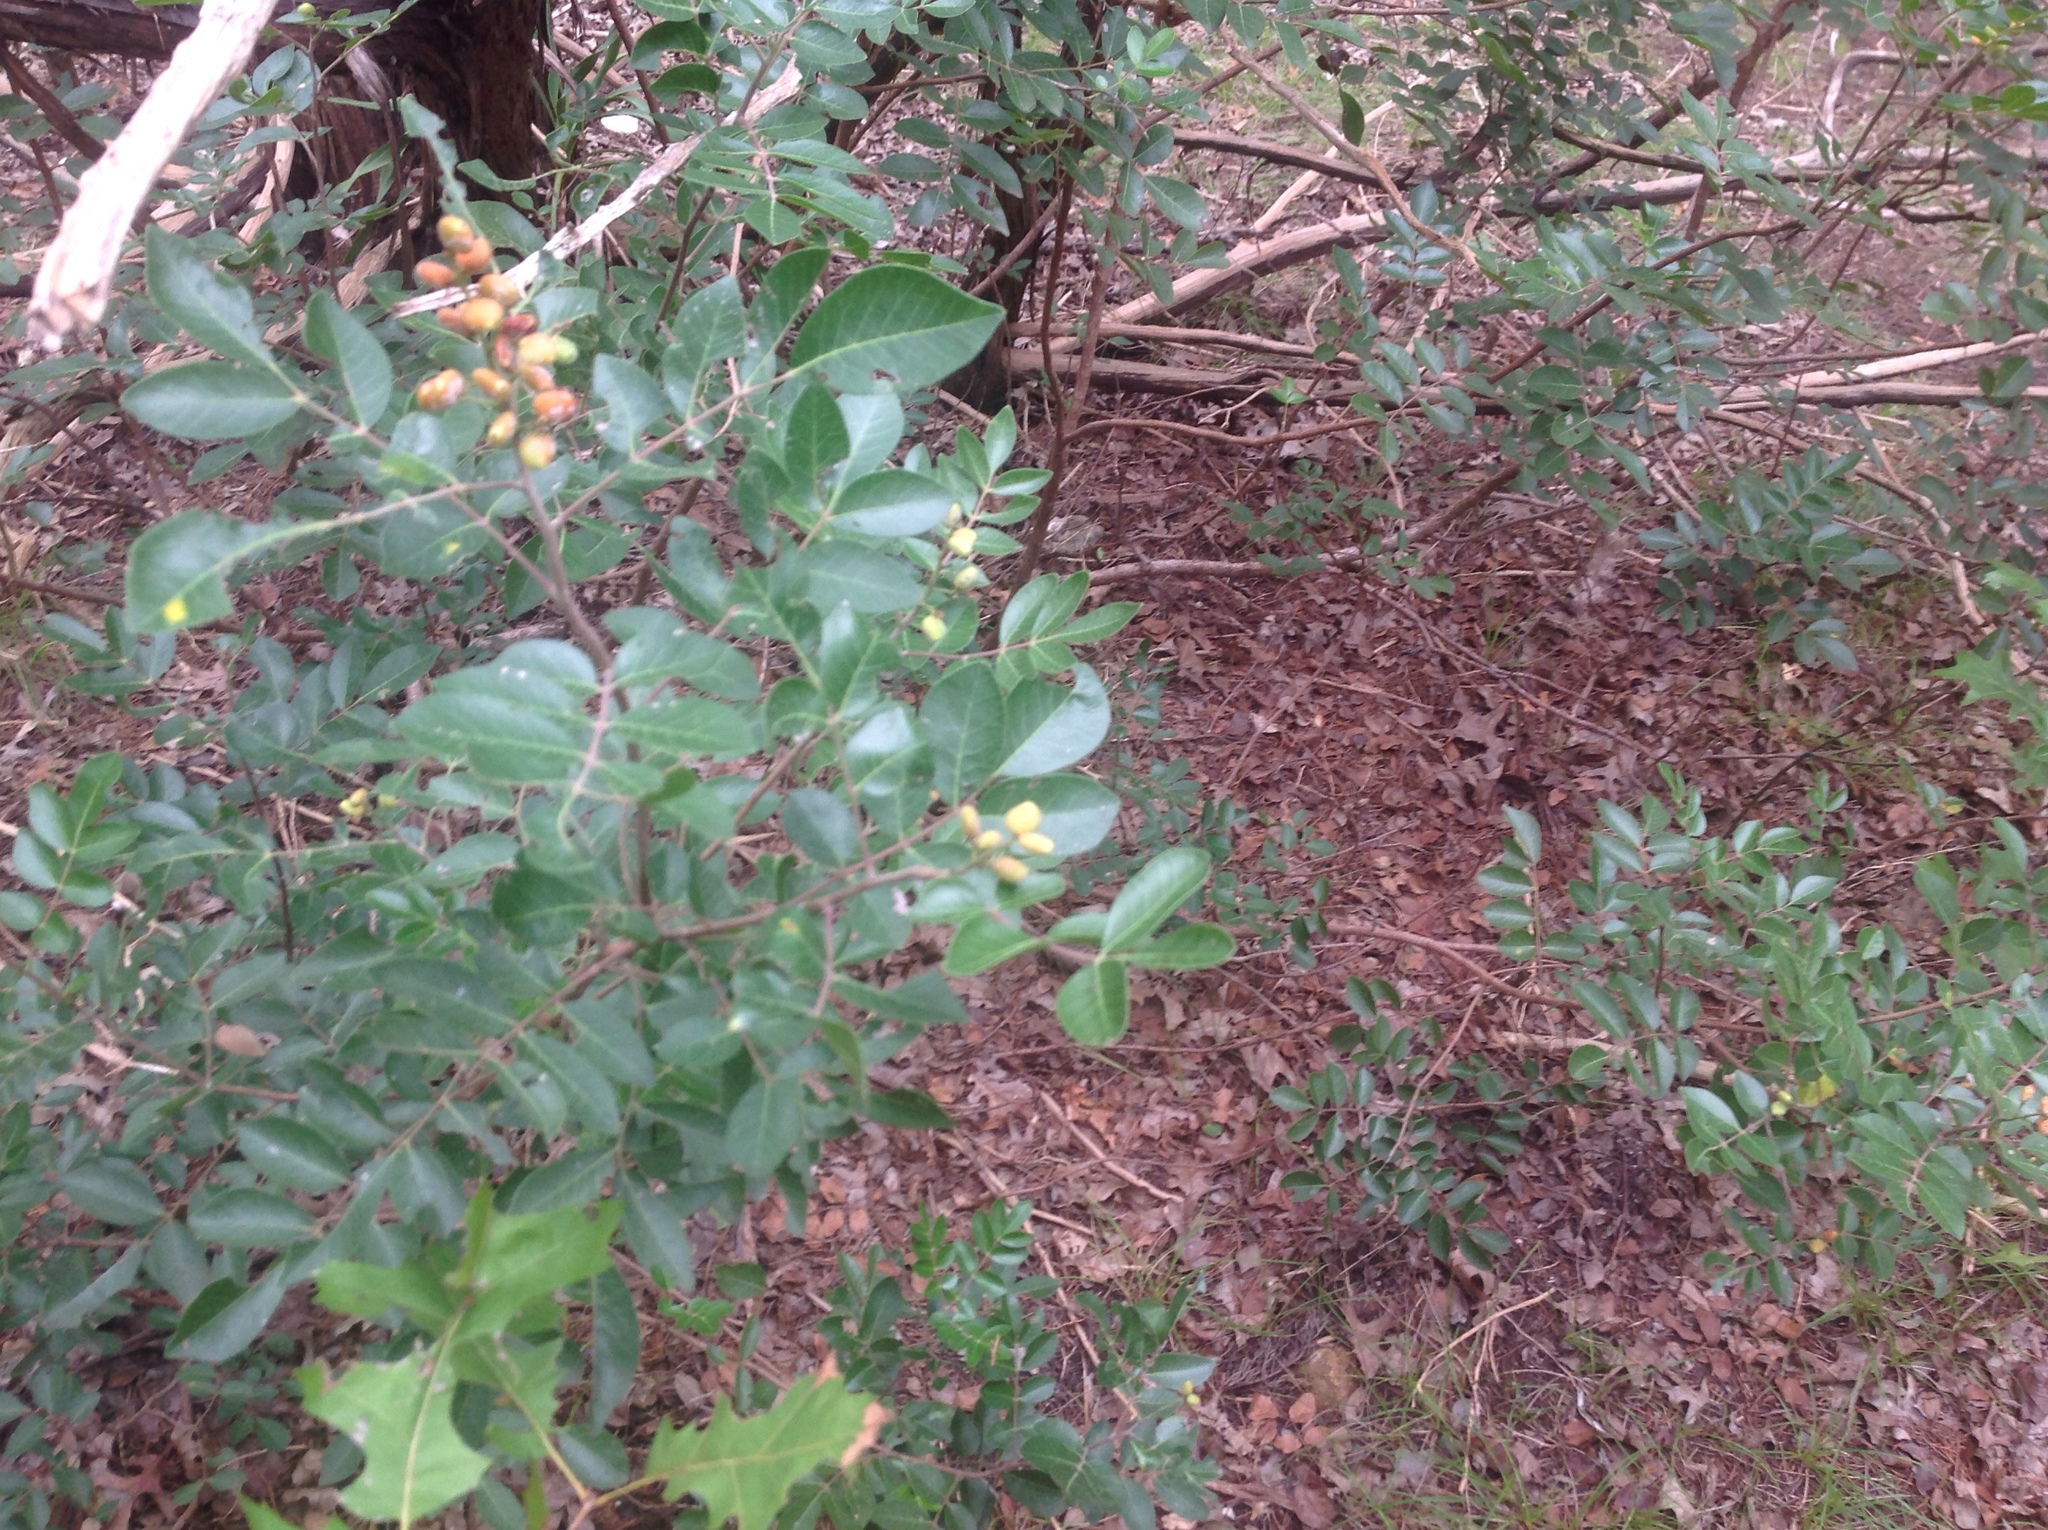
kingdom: Plantae
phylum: Tracheophyta
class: Magnoliopsida
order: Sapindales
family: Anacardiaceae
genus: Rhus
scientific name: Rhus virens
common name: Evergreen sumac
